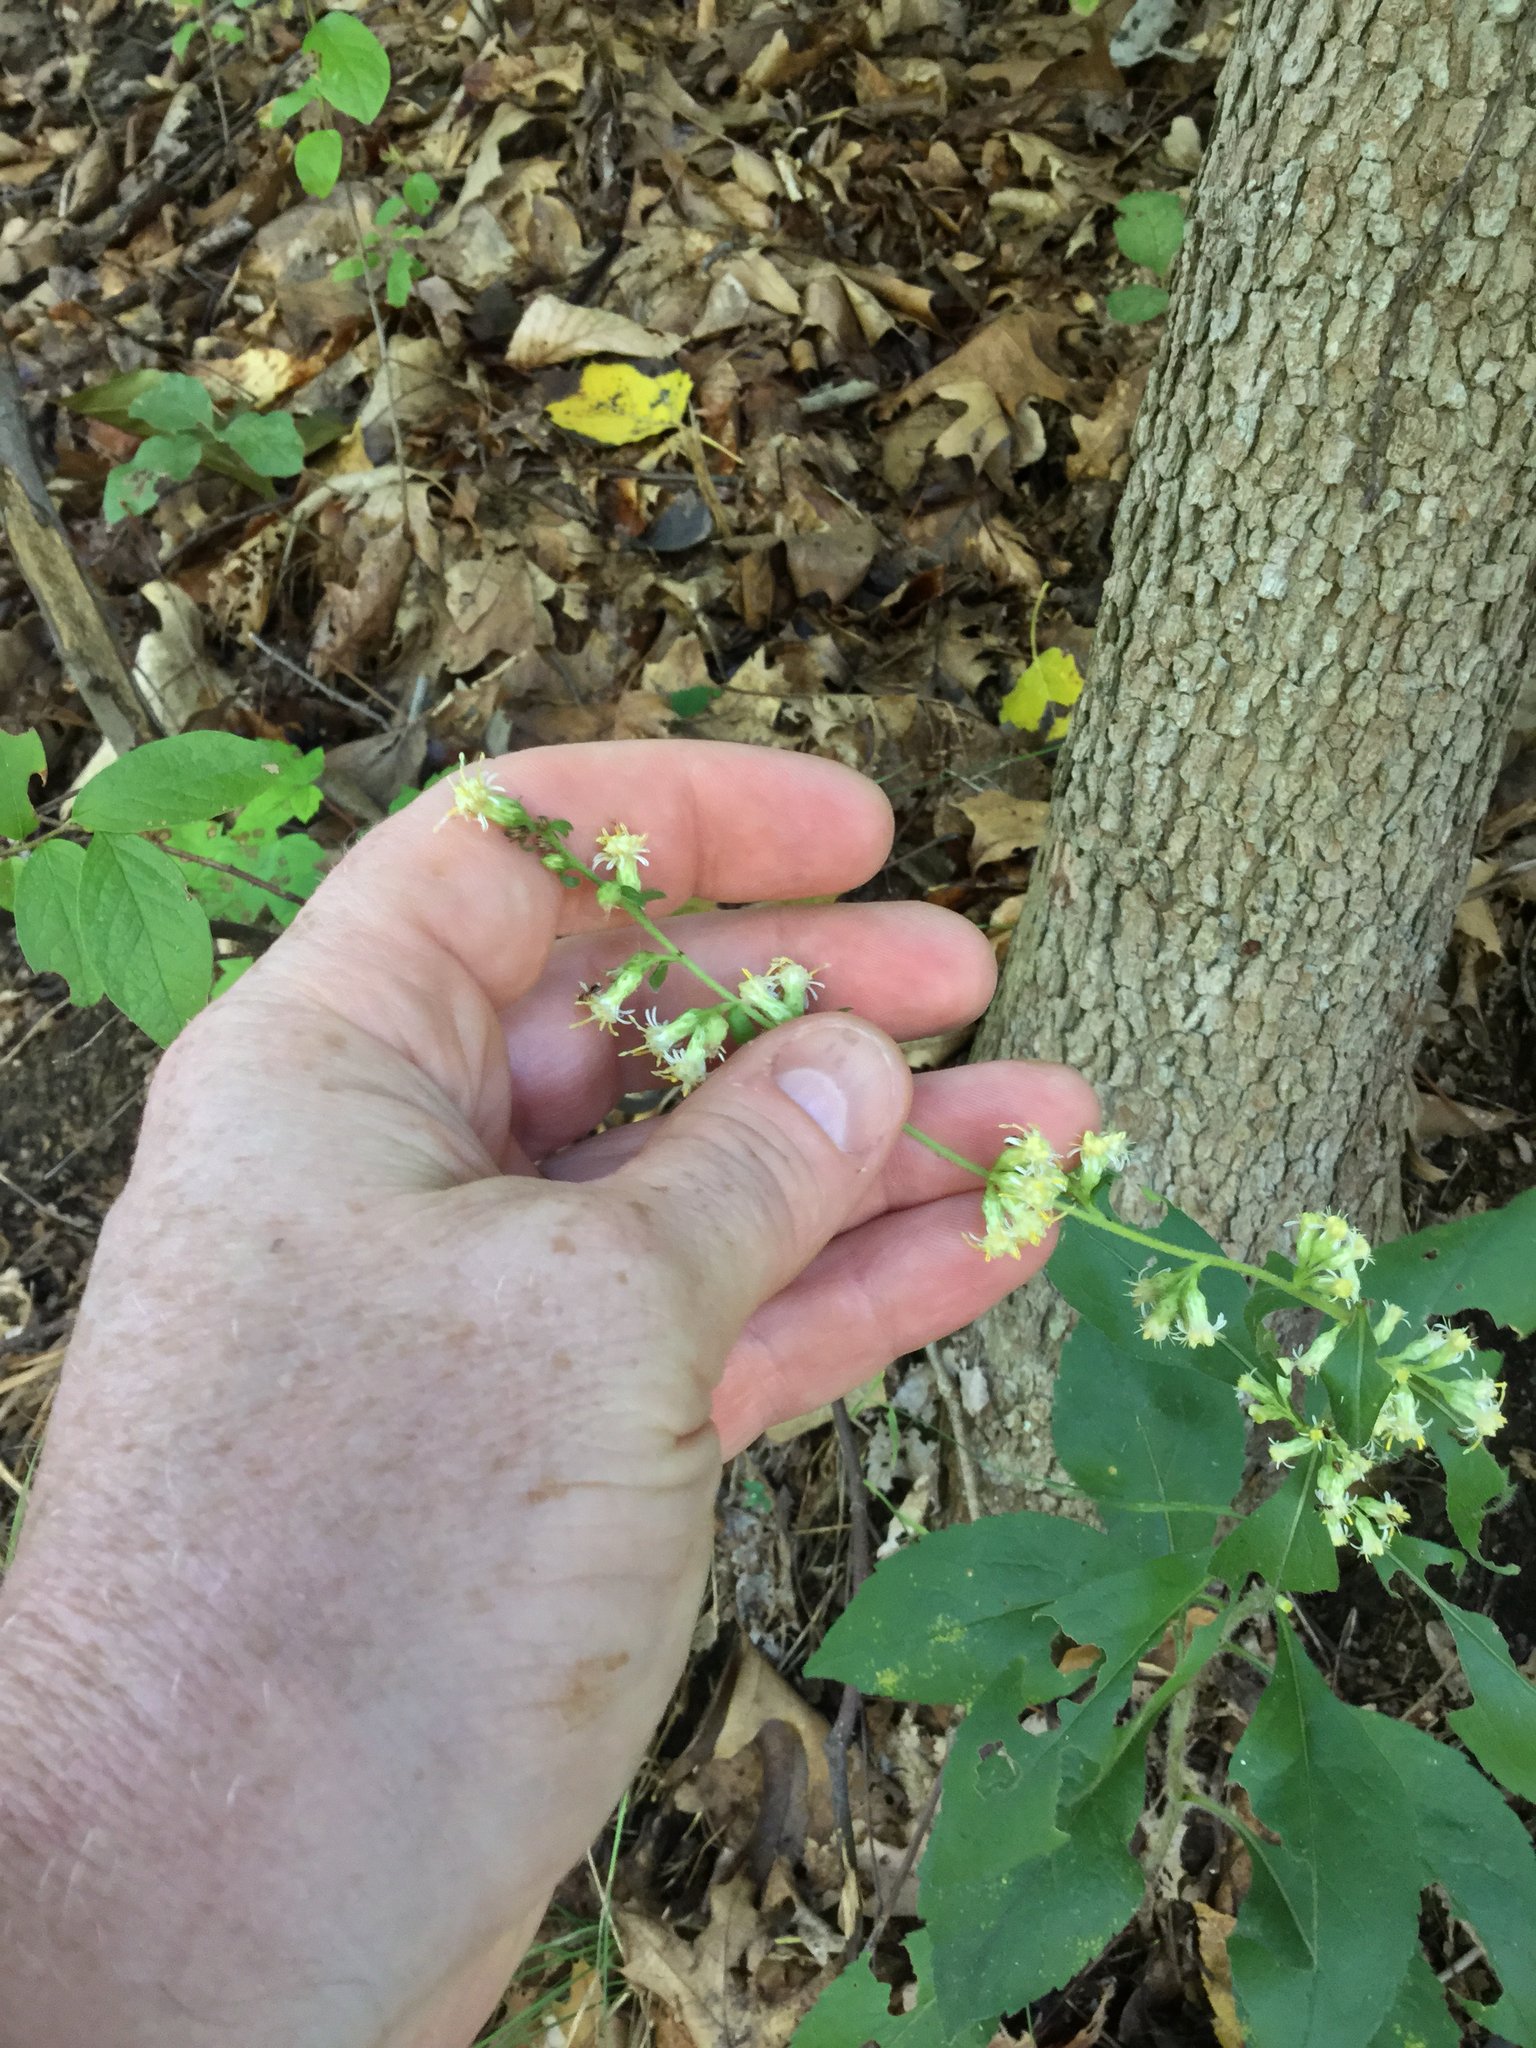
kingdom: Plantae
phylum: Tracheophyta
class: Magnoliopsida
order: Asterales
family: Asteraceae
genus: Solidago
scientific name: Solidago bicolor
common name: Silverrod
